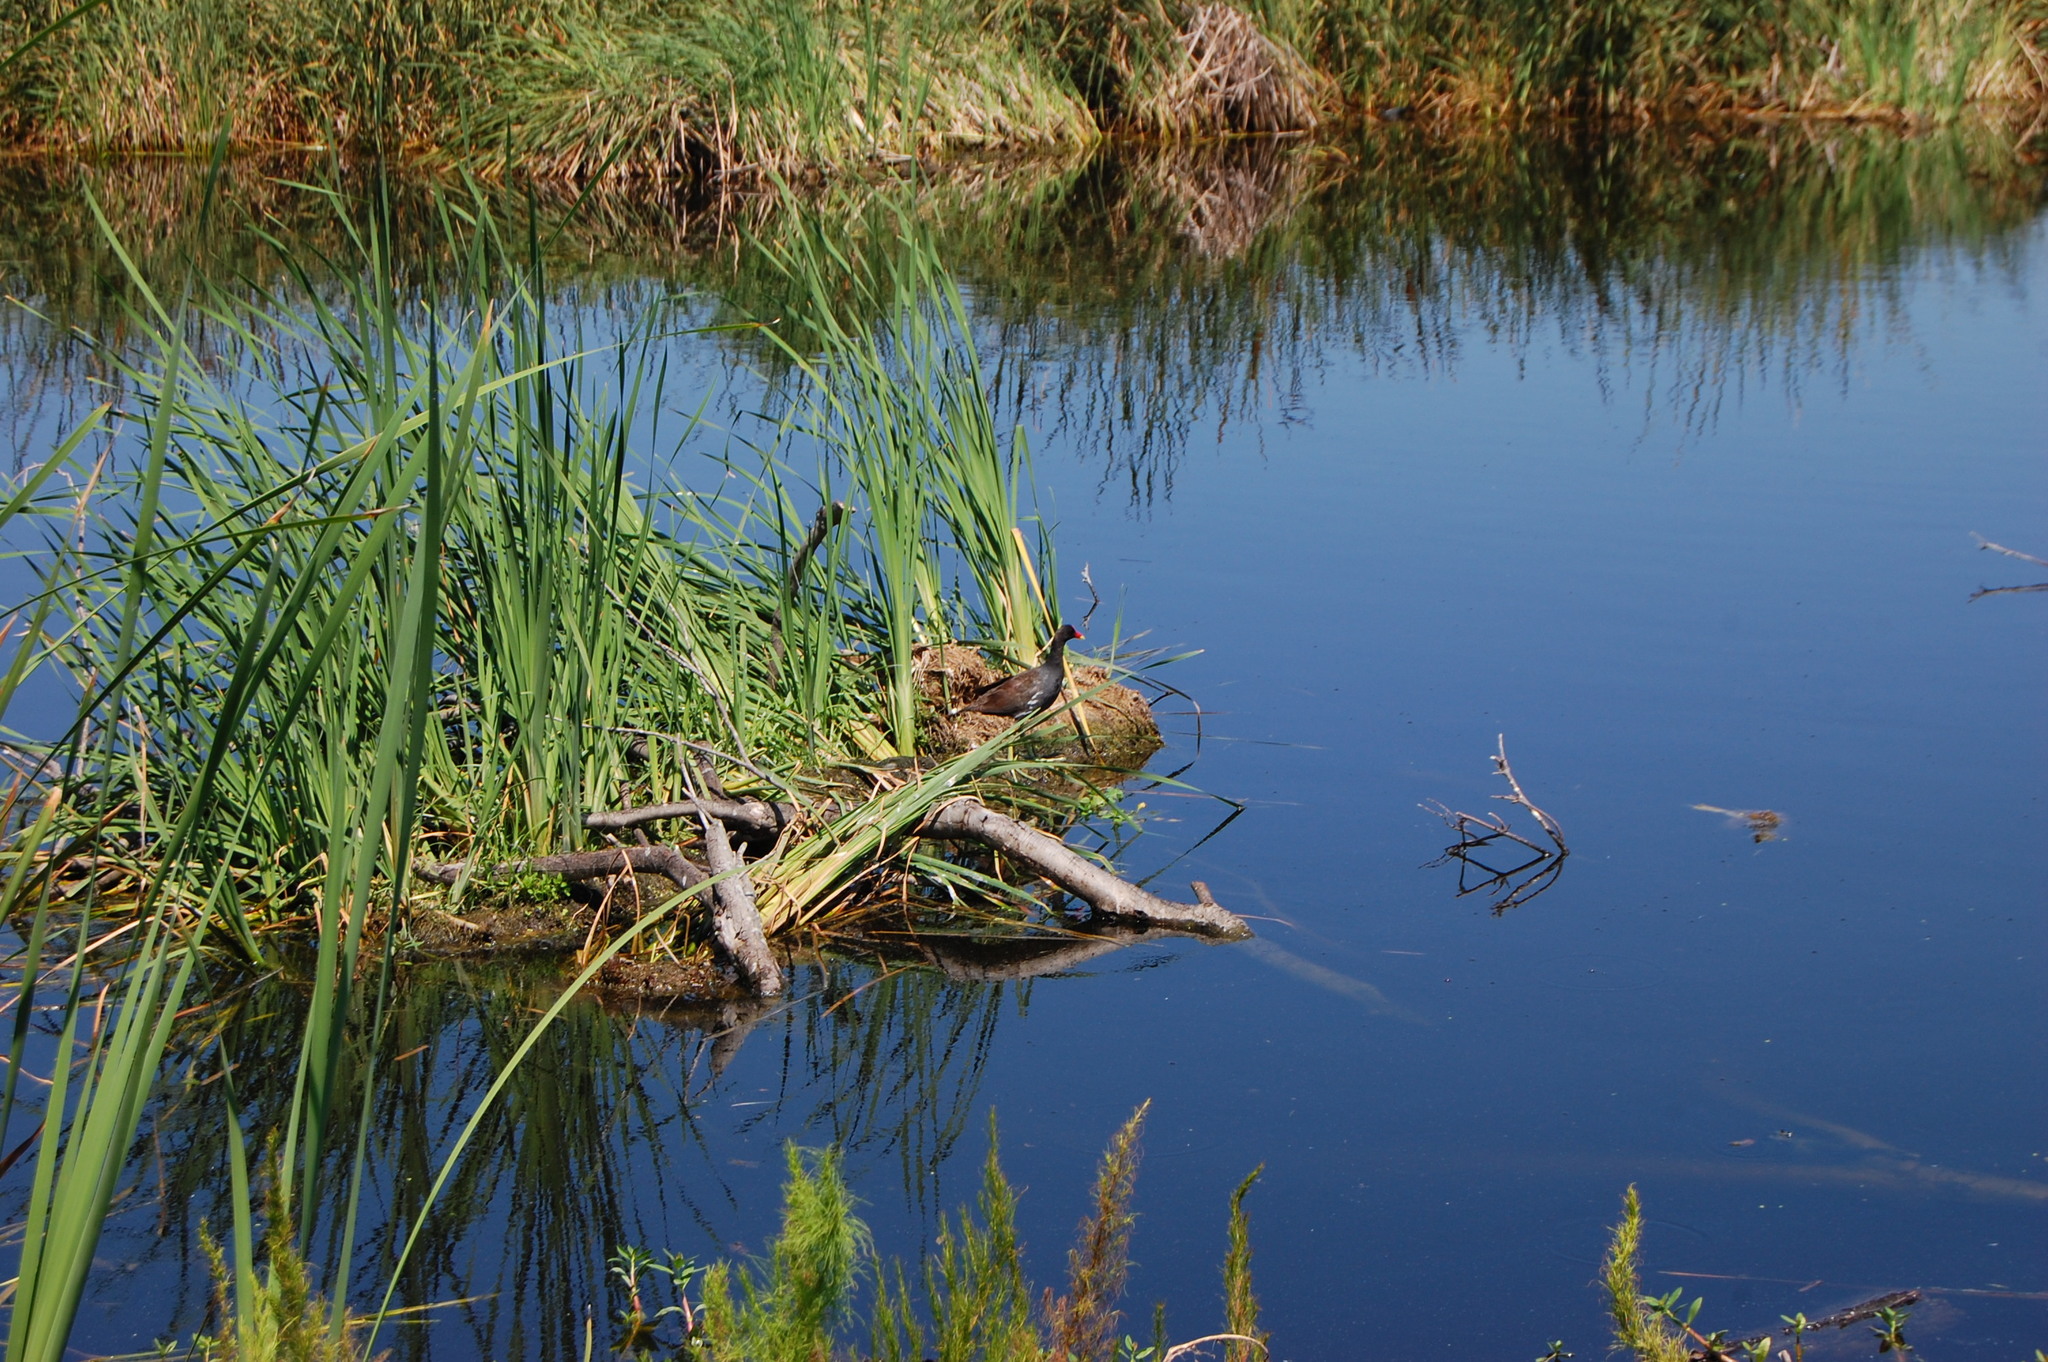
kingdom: Animalia
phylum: Chordata
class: Aves
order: Gruiformes
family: Rallidae
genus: Gallinula
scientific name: Gallinula chloropus
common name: Common moorhen
